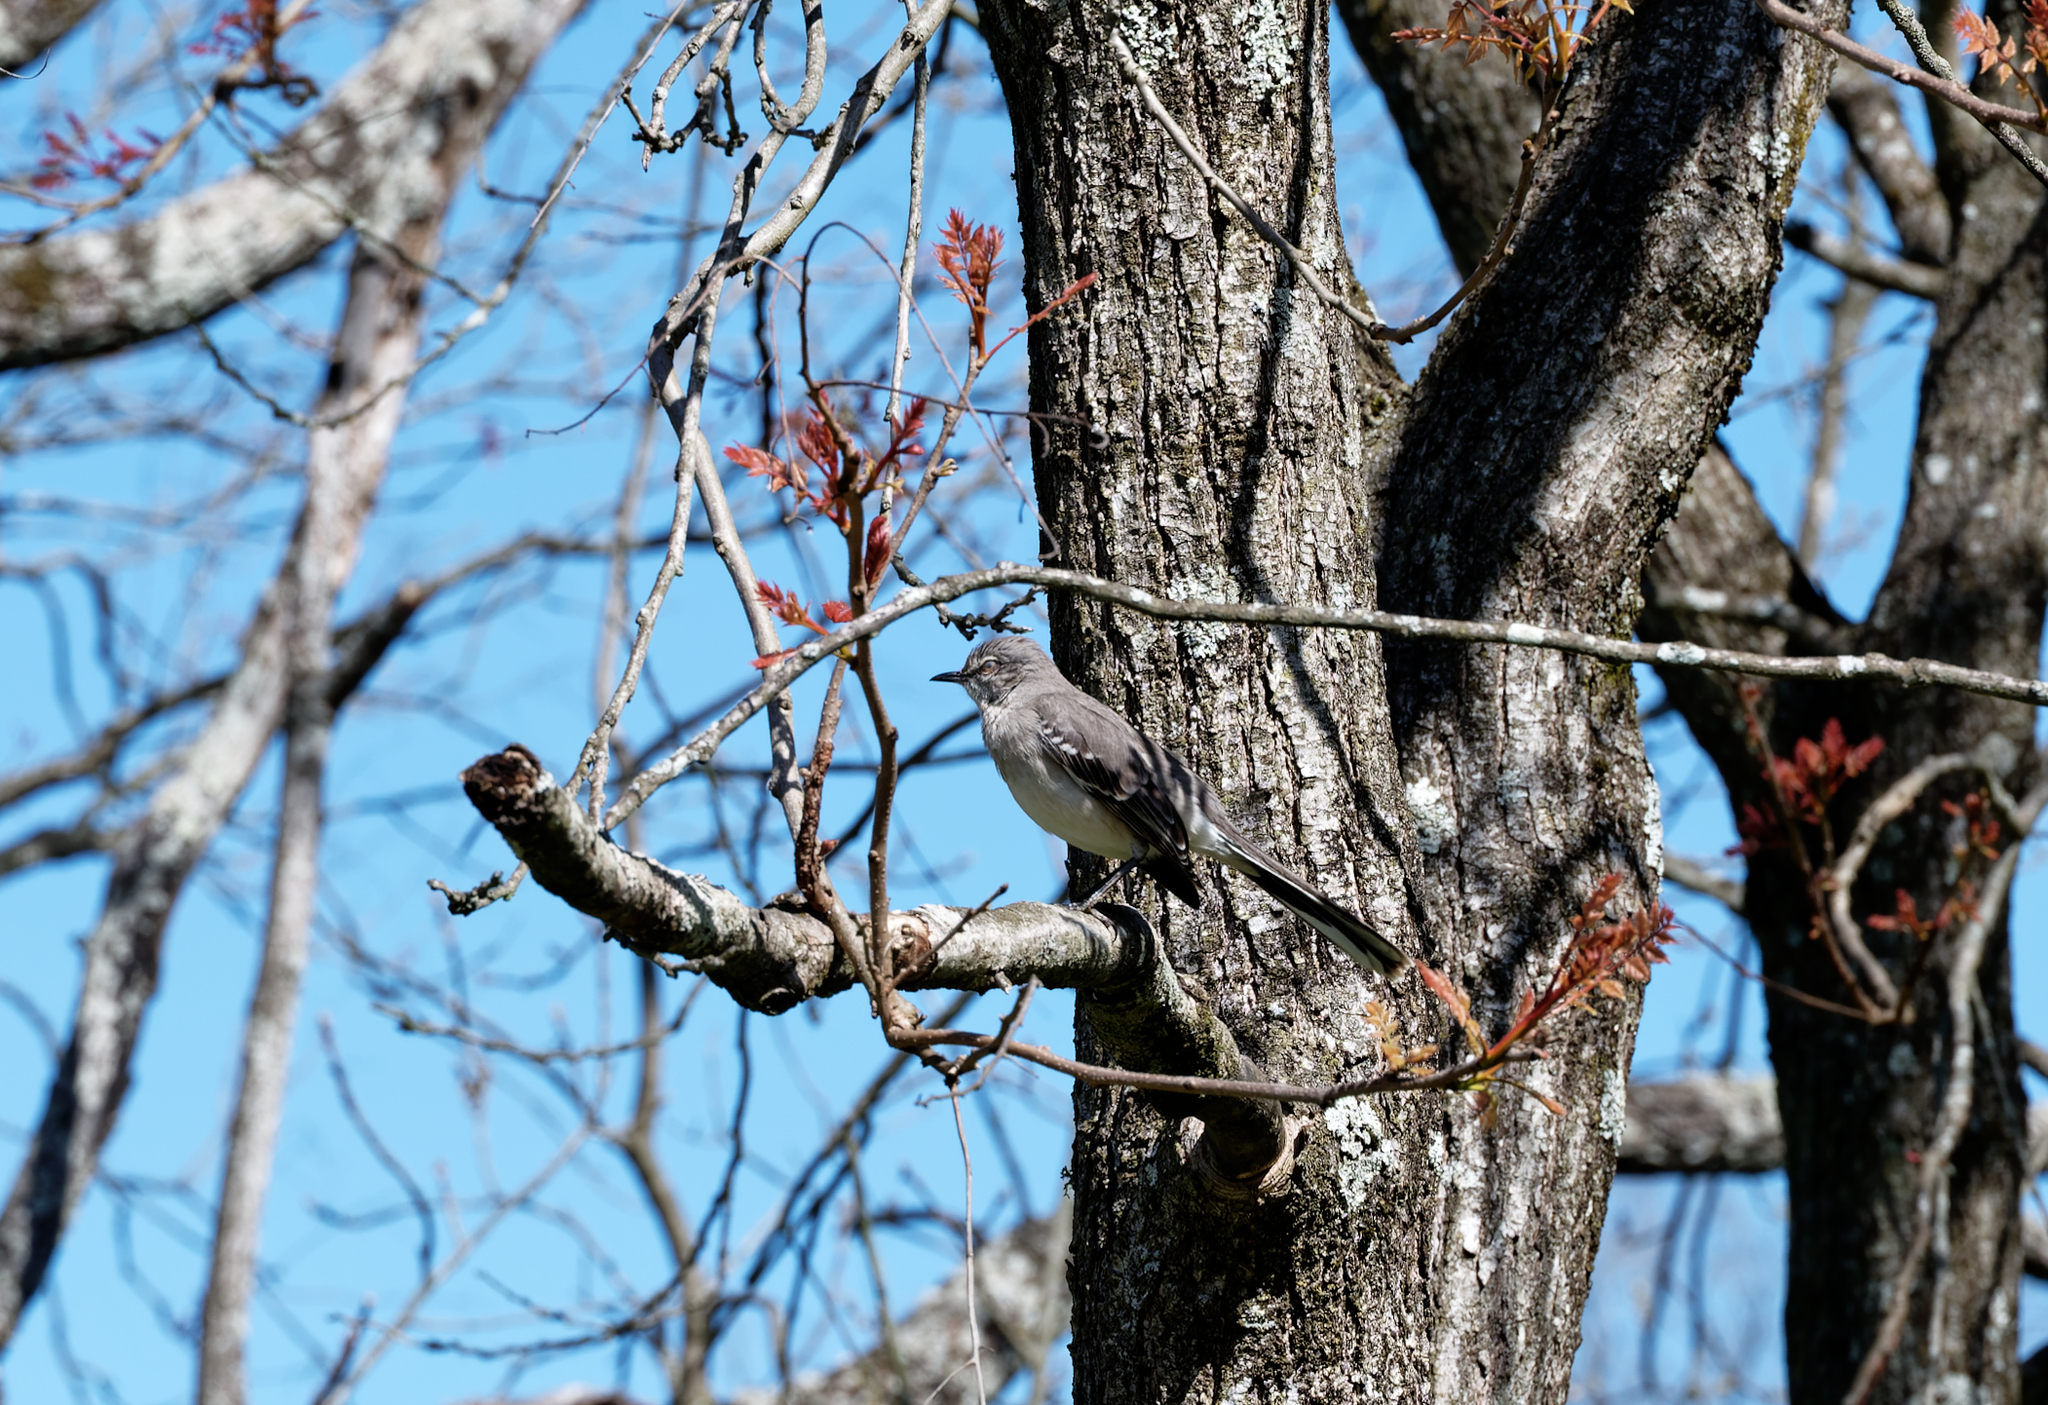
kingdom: Animalia
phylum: Chordata
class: Aves
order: Passeriformes
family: Mimidae
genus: Mimus
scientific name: Mimus polyglottos
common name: Northern mockingbird
